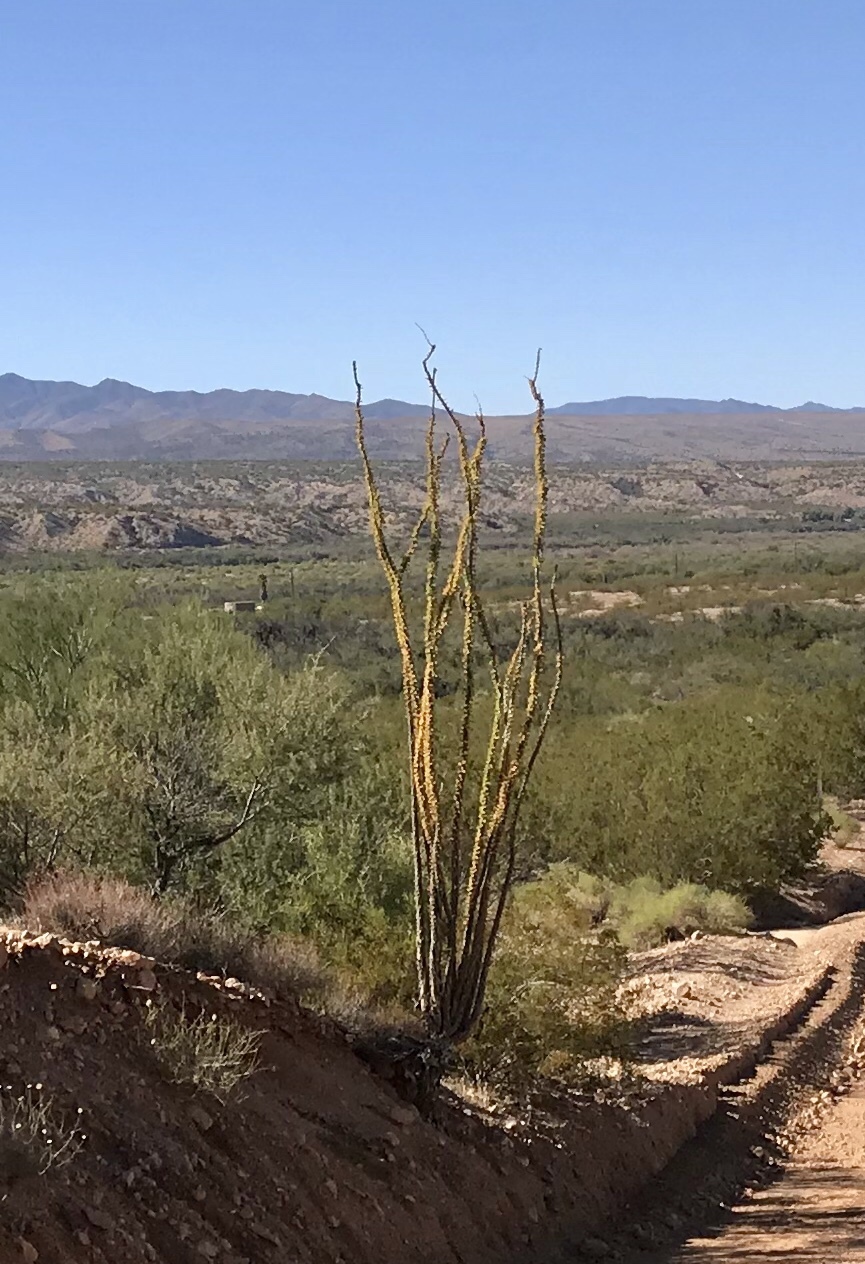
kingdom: Plantae
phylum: Tracheophyta
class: Magnoliopsida
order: Ericales
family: Fouquieriaceae
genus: Fouquieria
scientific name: Fouquieria splendens
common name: Vine-cactus
